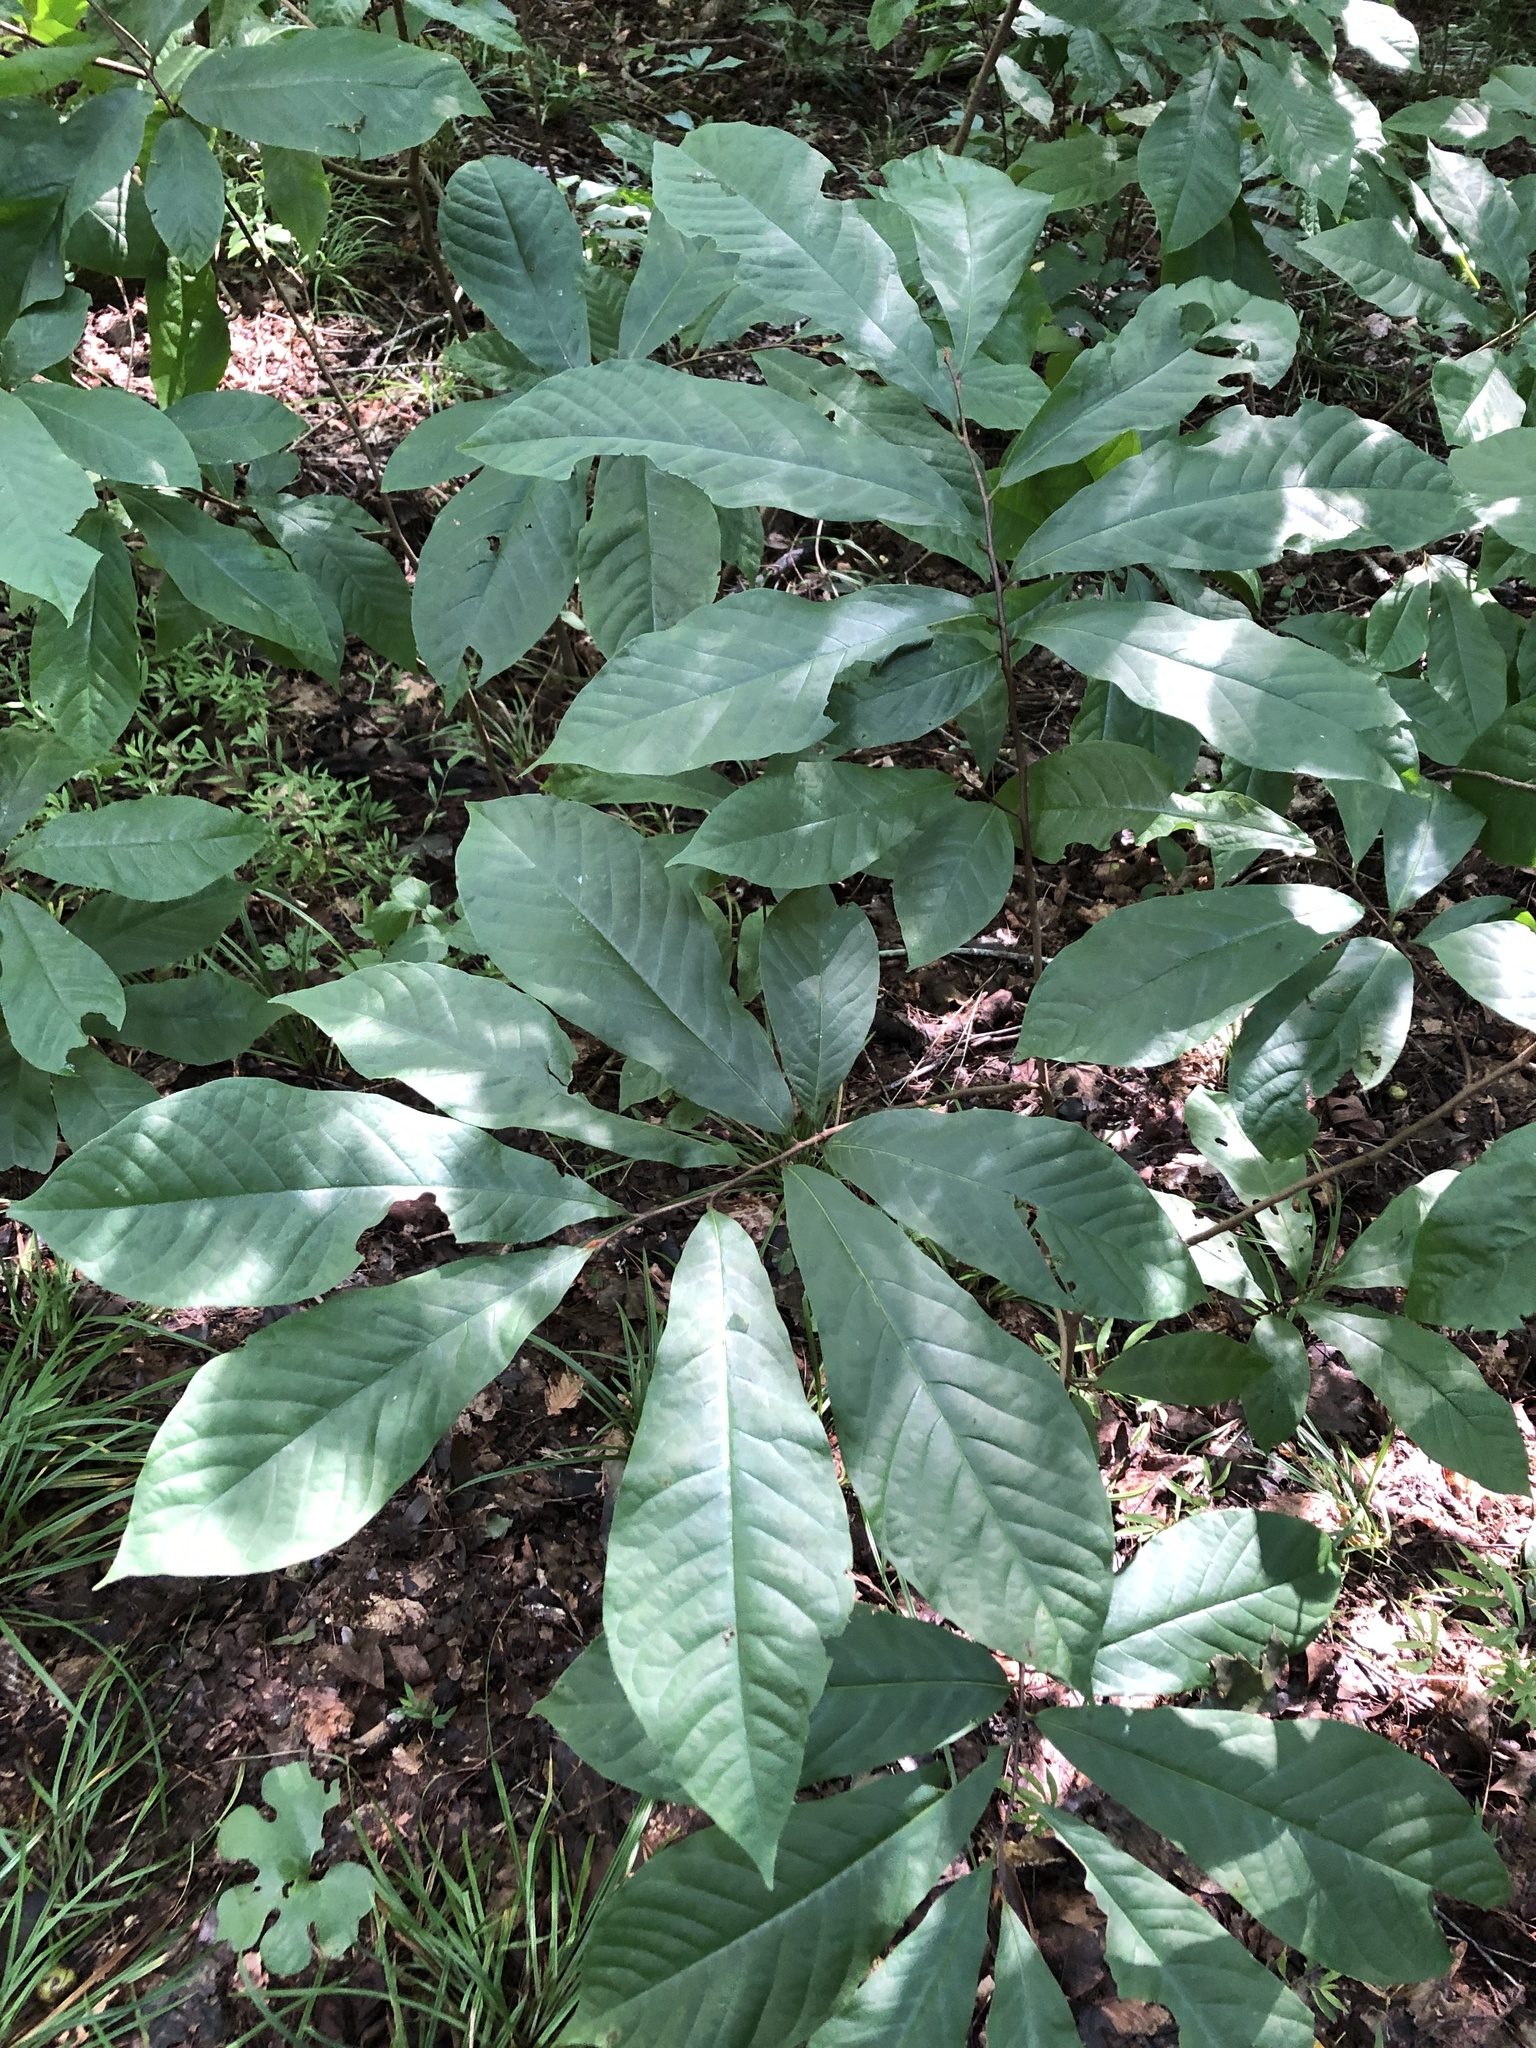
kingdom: Plantae
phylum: Tracheophyta
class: Magnoliopsida
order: Magnoliales
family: Annonaceae
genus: Asimina
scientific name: Asimina triloba
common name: Dog-banana
